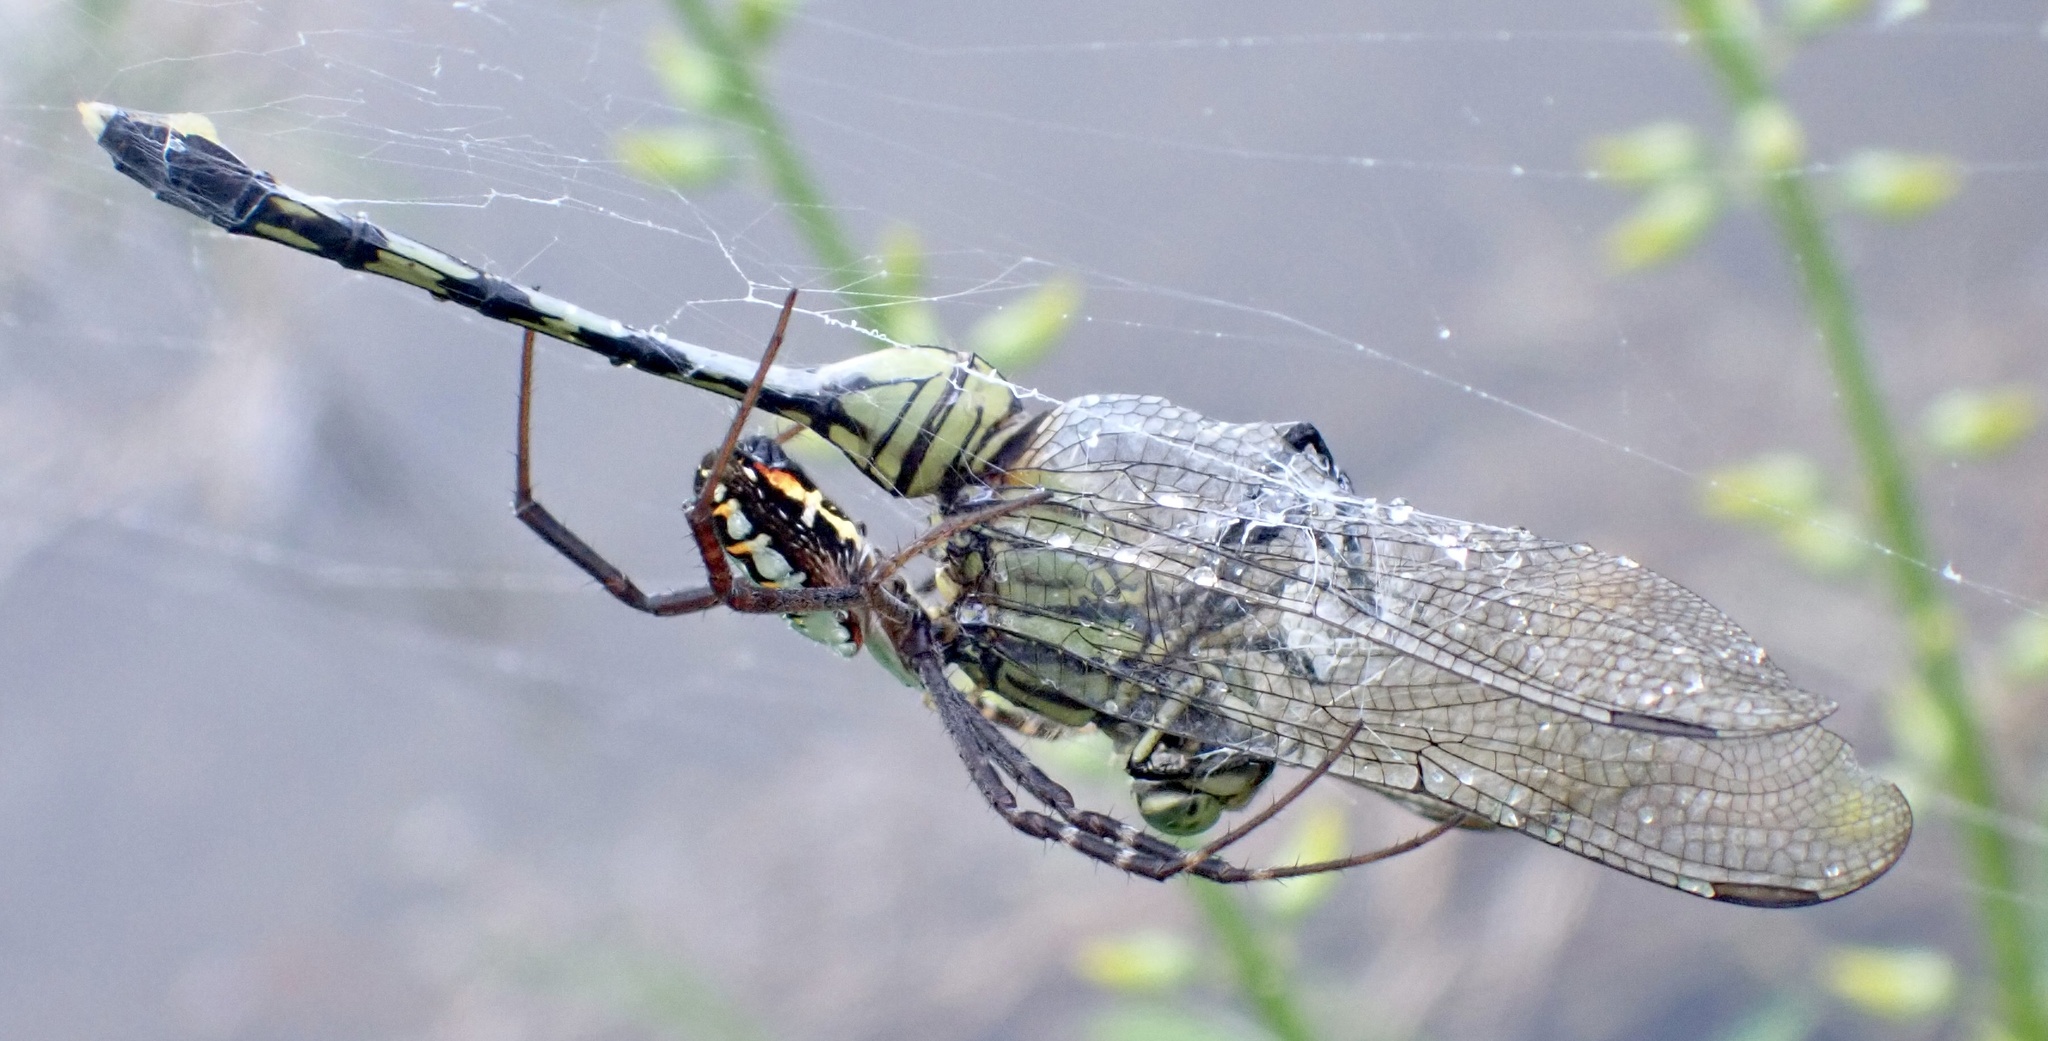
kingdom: Animalia
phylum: Arthropoda
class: Arachnida
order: Araneae
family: Araneidae
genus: Argiope
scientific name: Argiope catenulata
